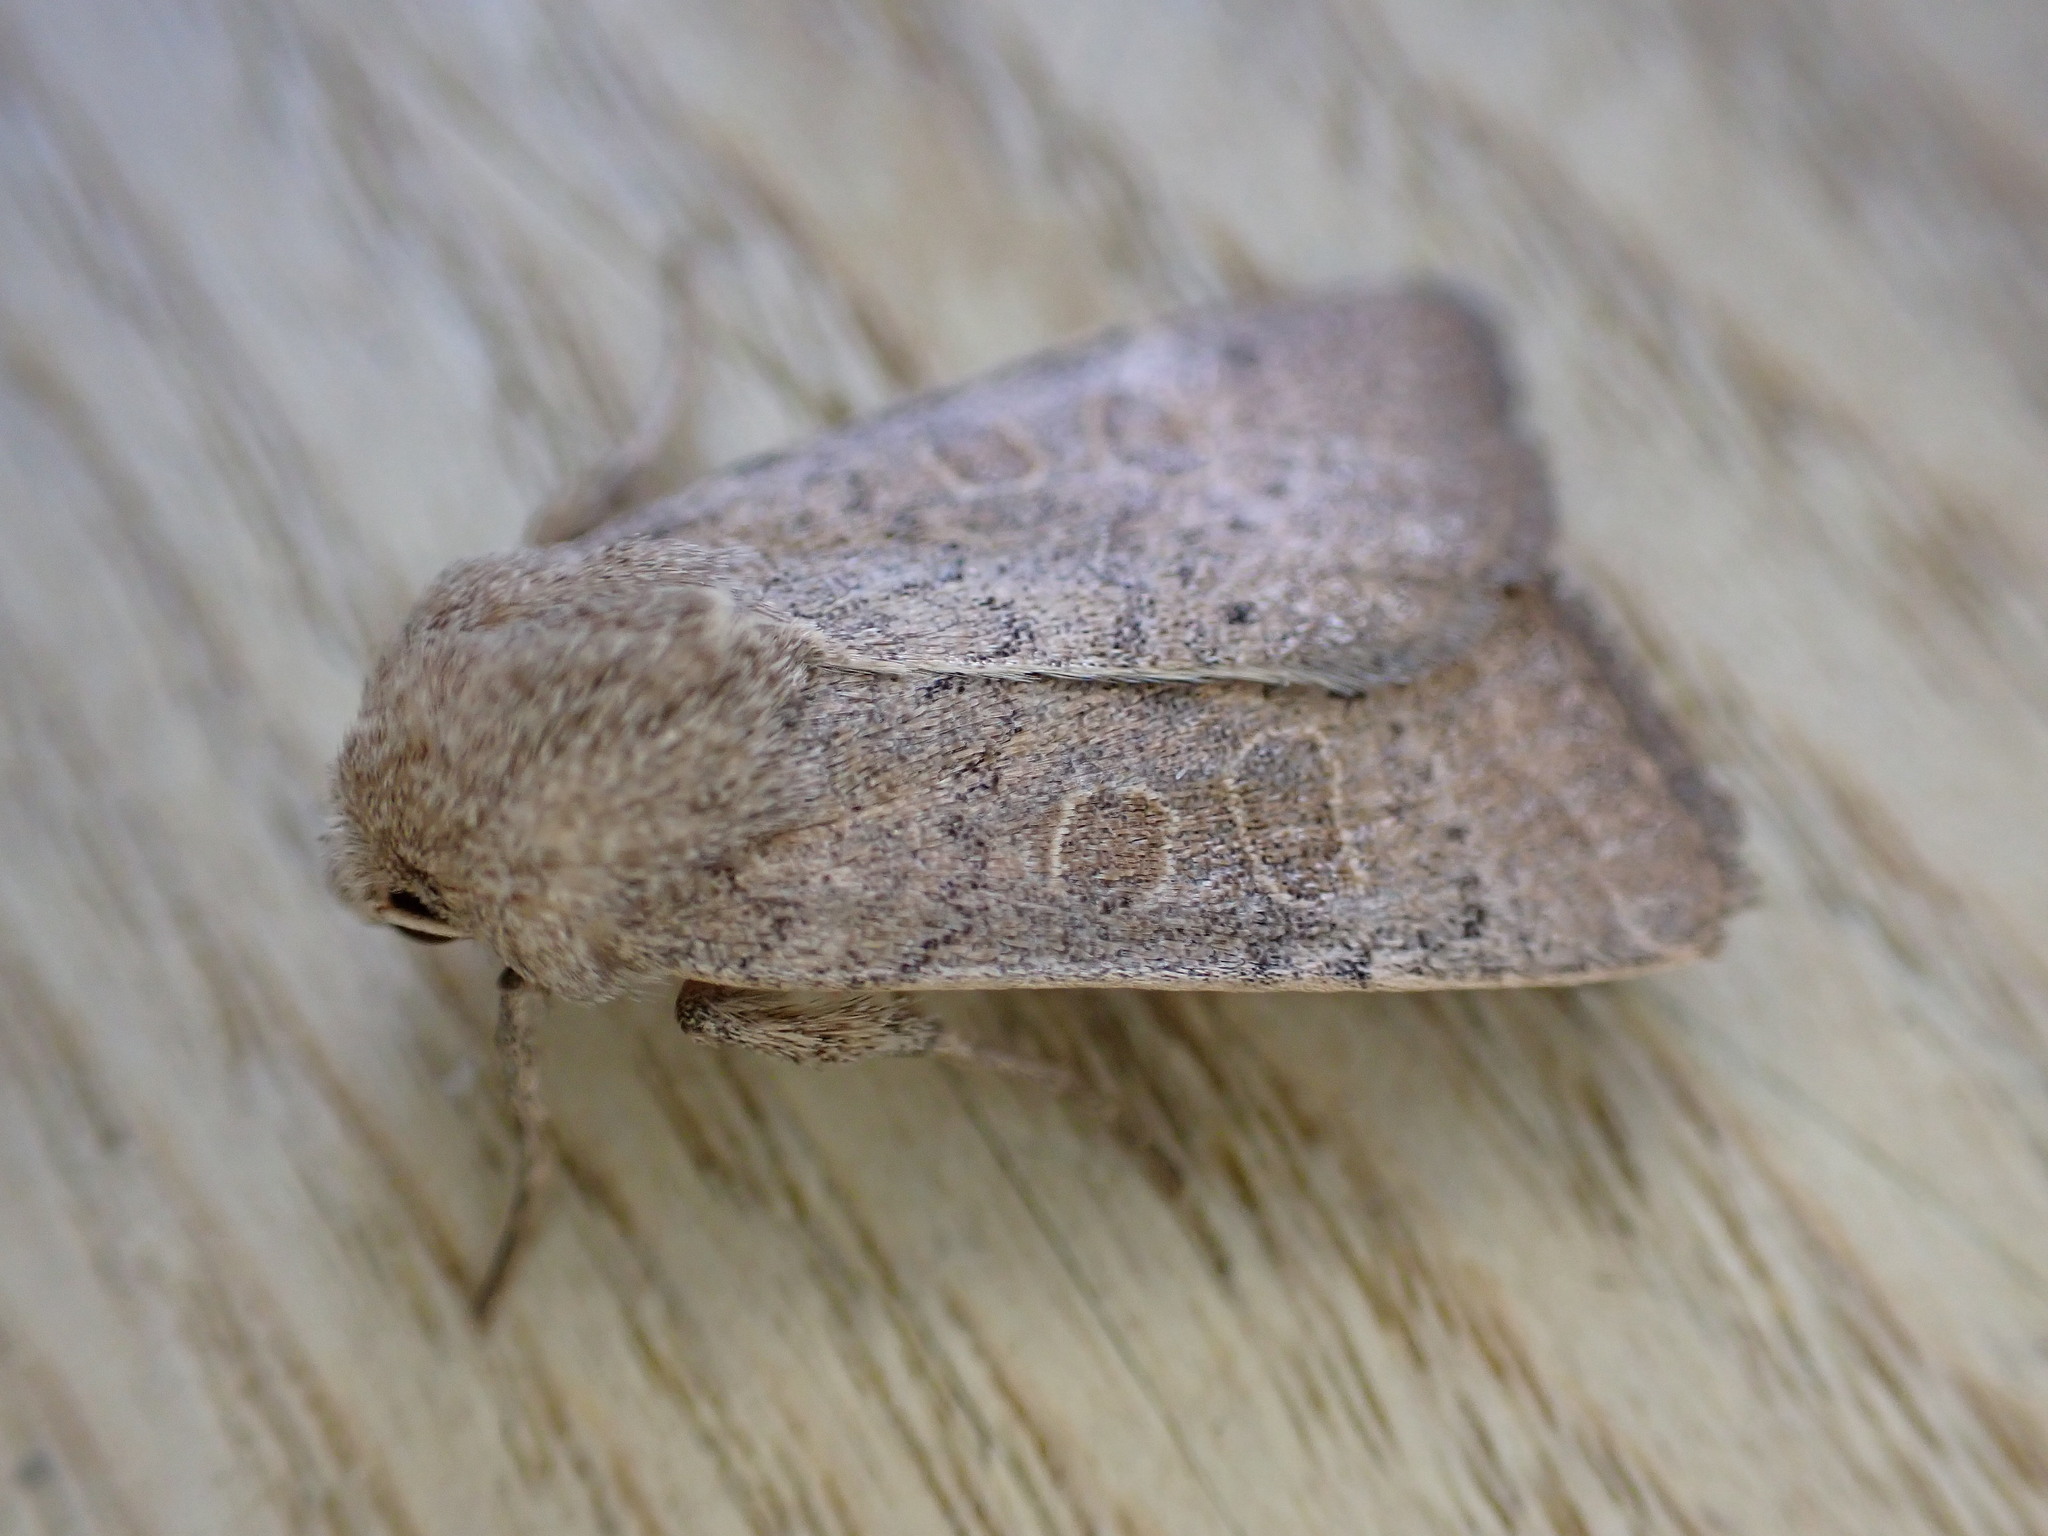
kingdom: Animalia
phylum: Arthropoda
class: Insecta
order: Lepidoptera
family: Noctuidae
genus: Hoplodrina
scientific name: Hoplodrina ambigua
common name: Vine's rustic
